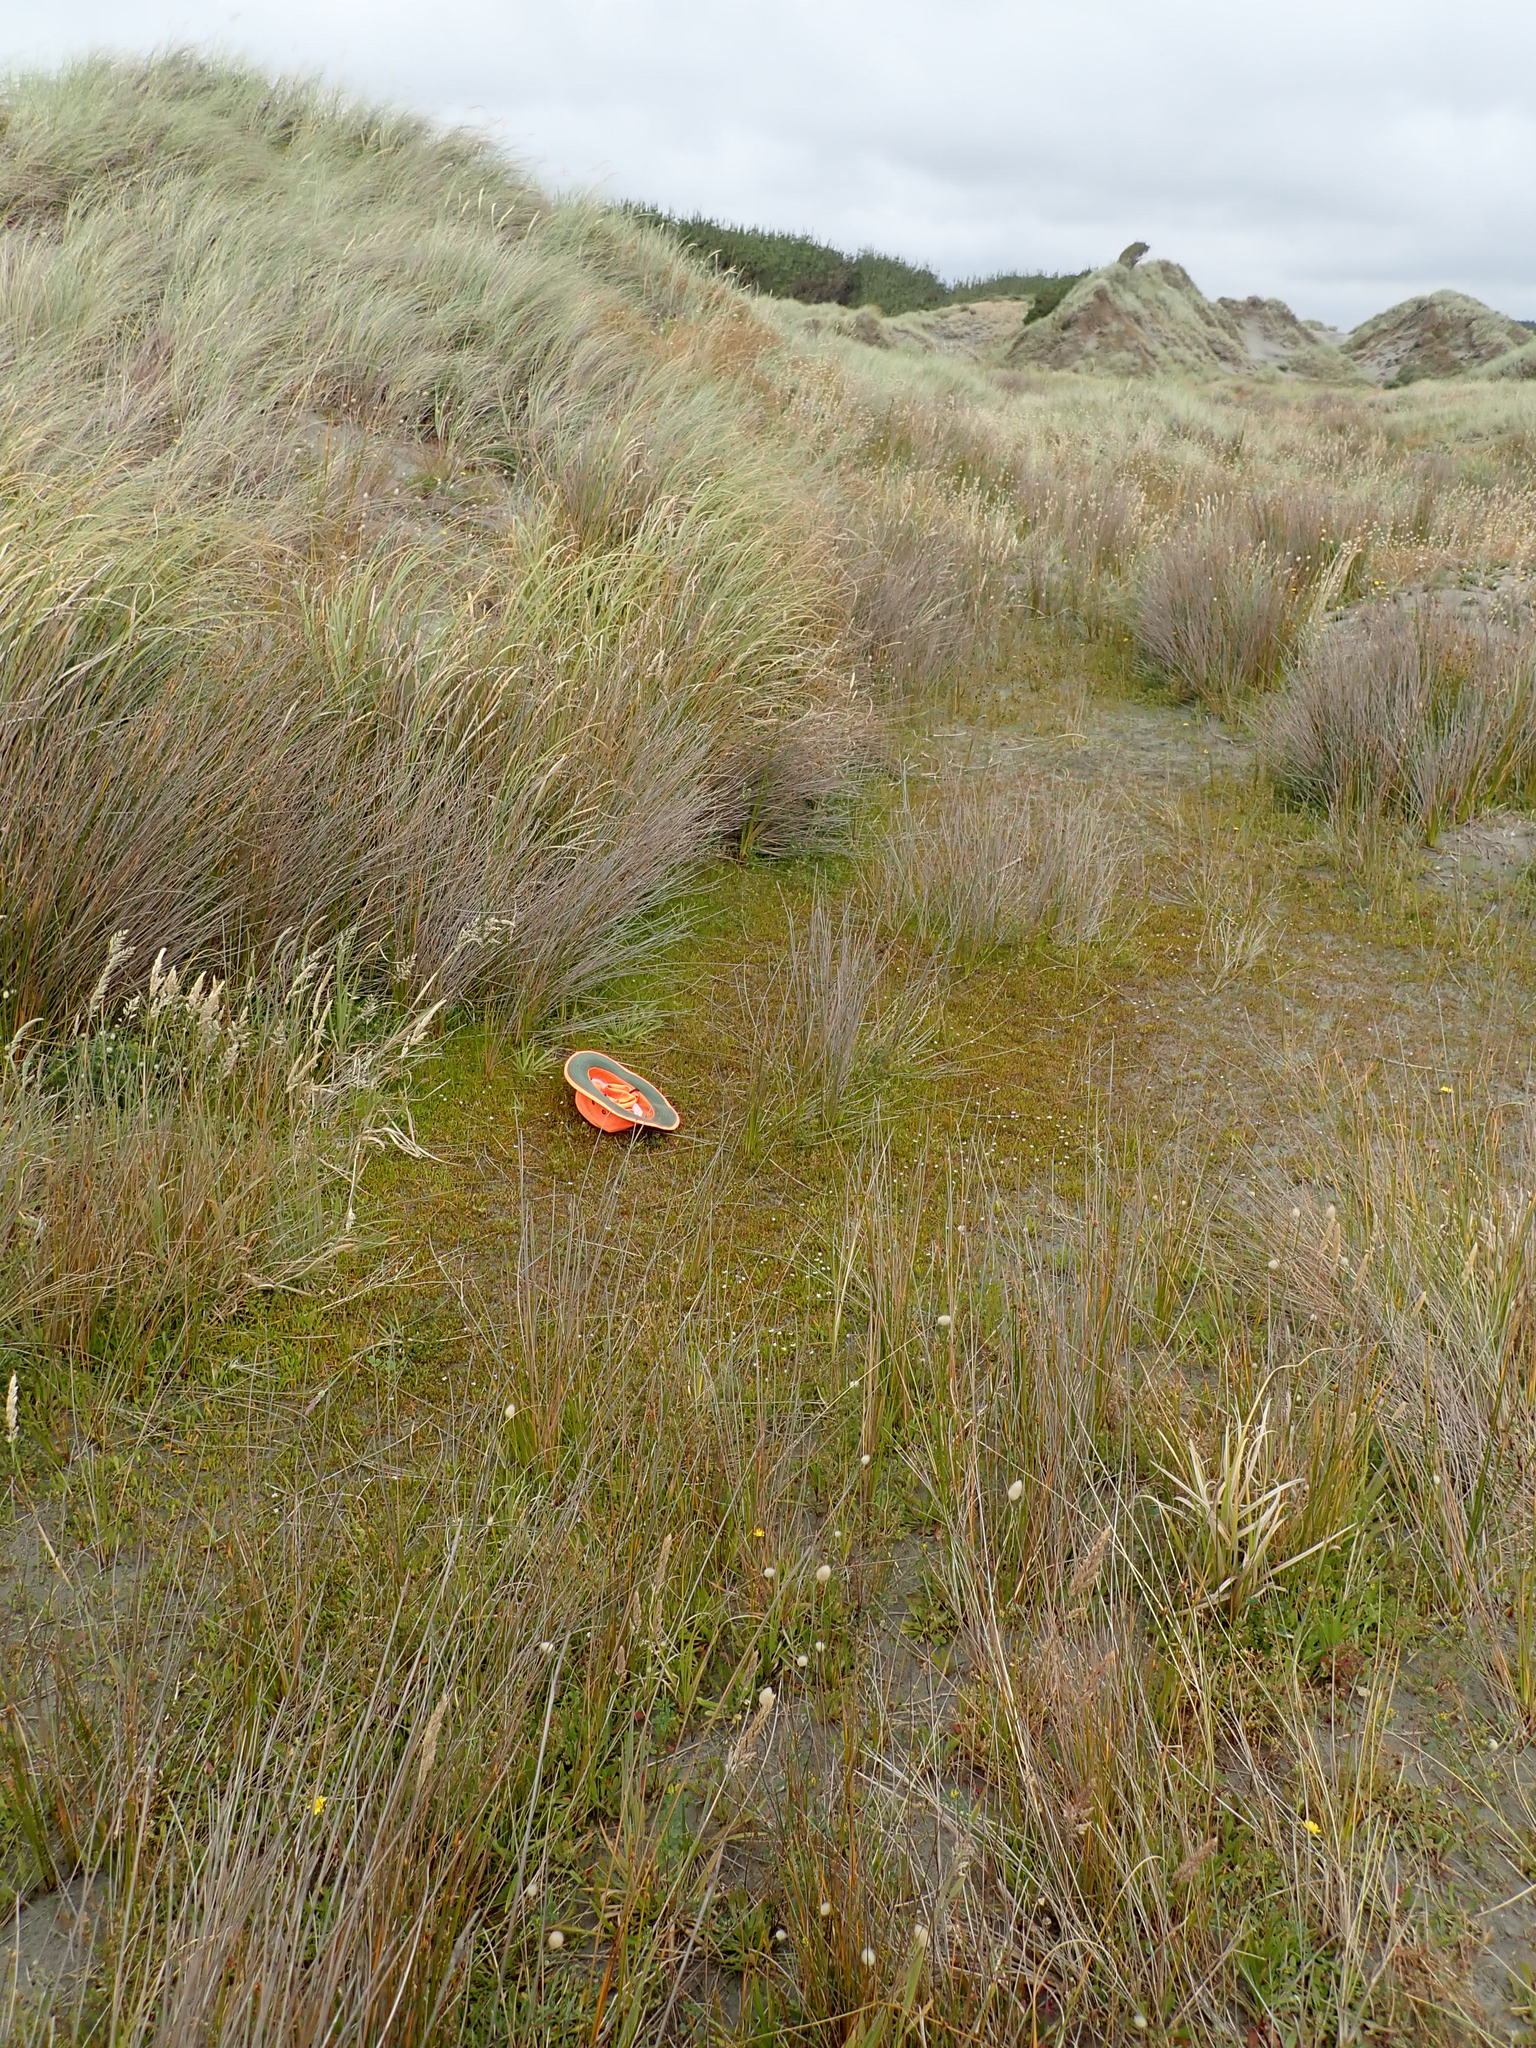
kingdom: Plantae
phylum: Tracheophyta
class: Liliopsida
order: Poales
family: Juncaceae
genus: Juncus
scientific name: Juncus caespiticius
